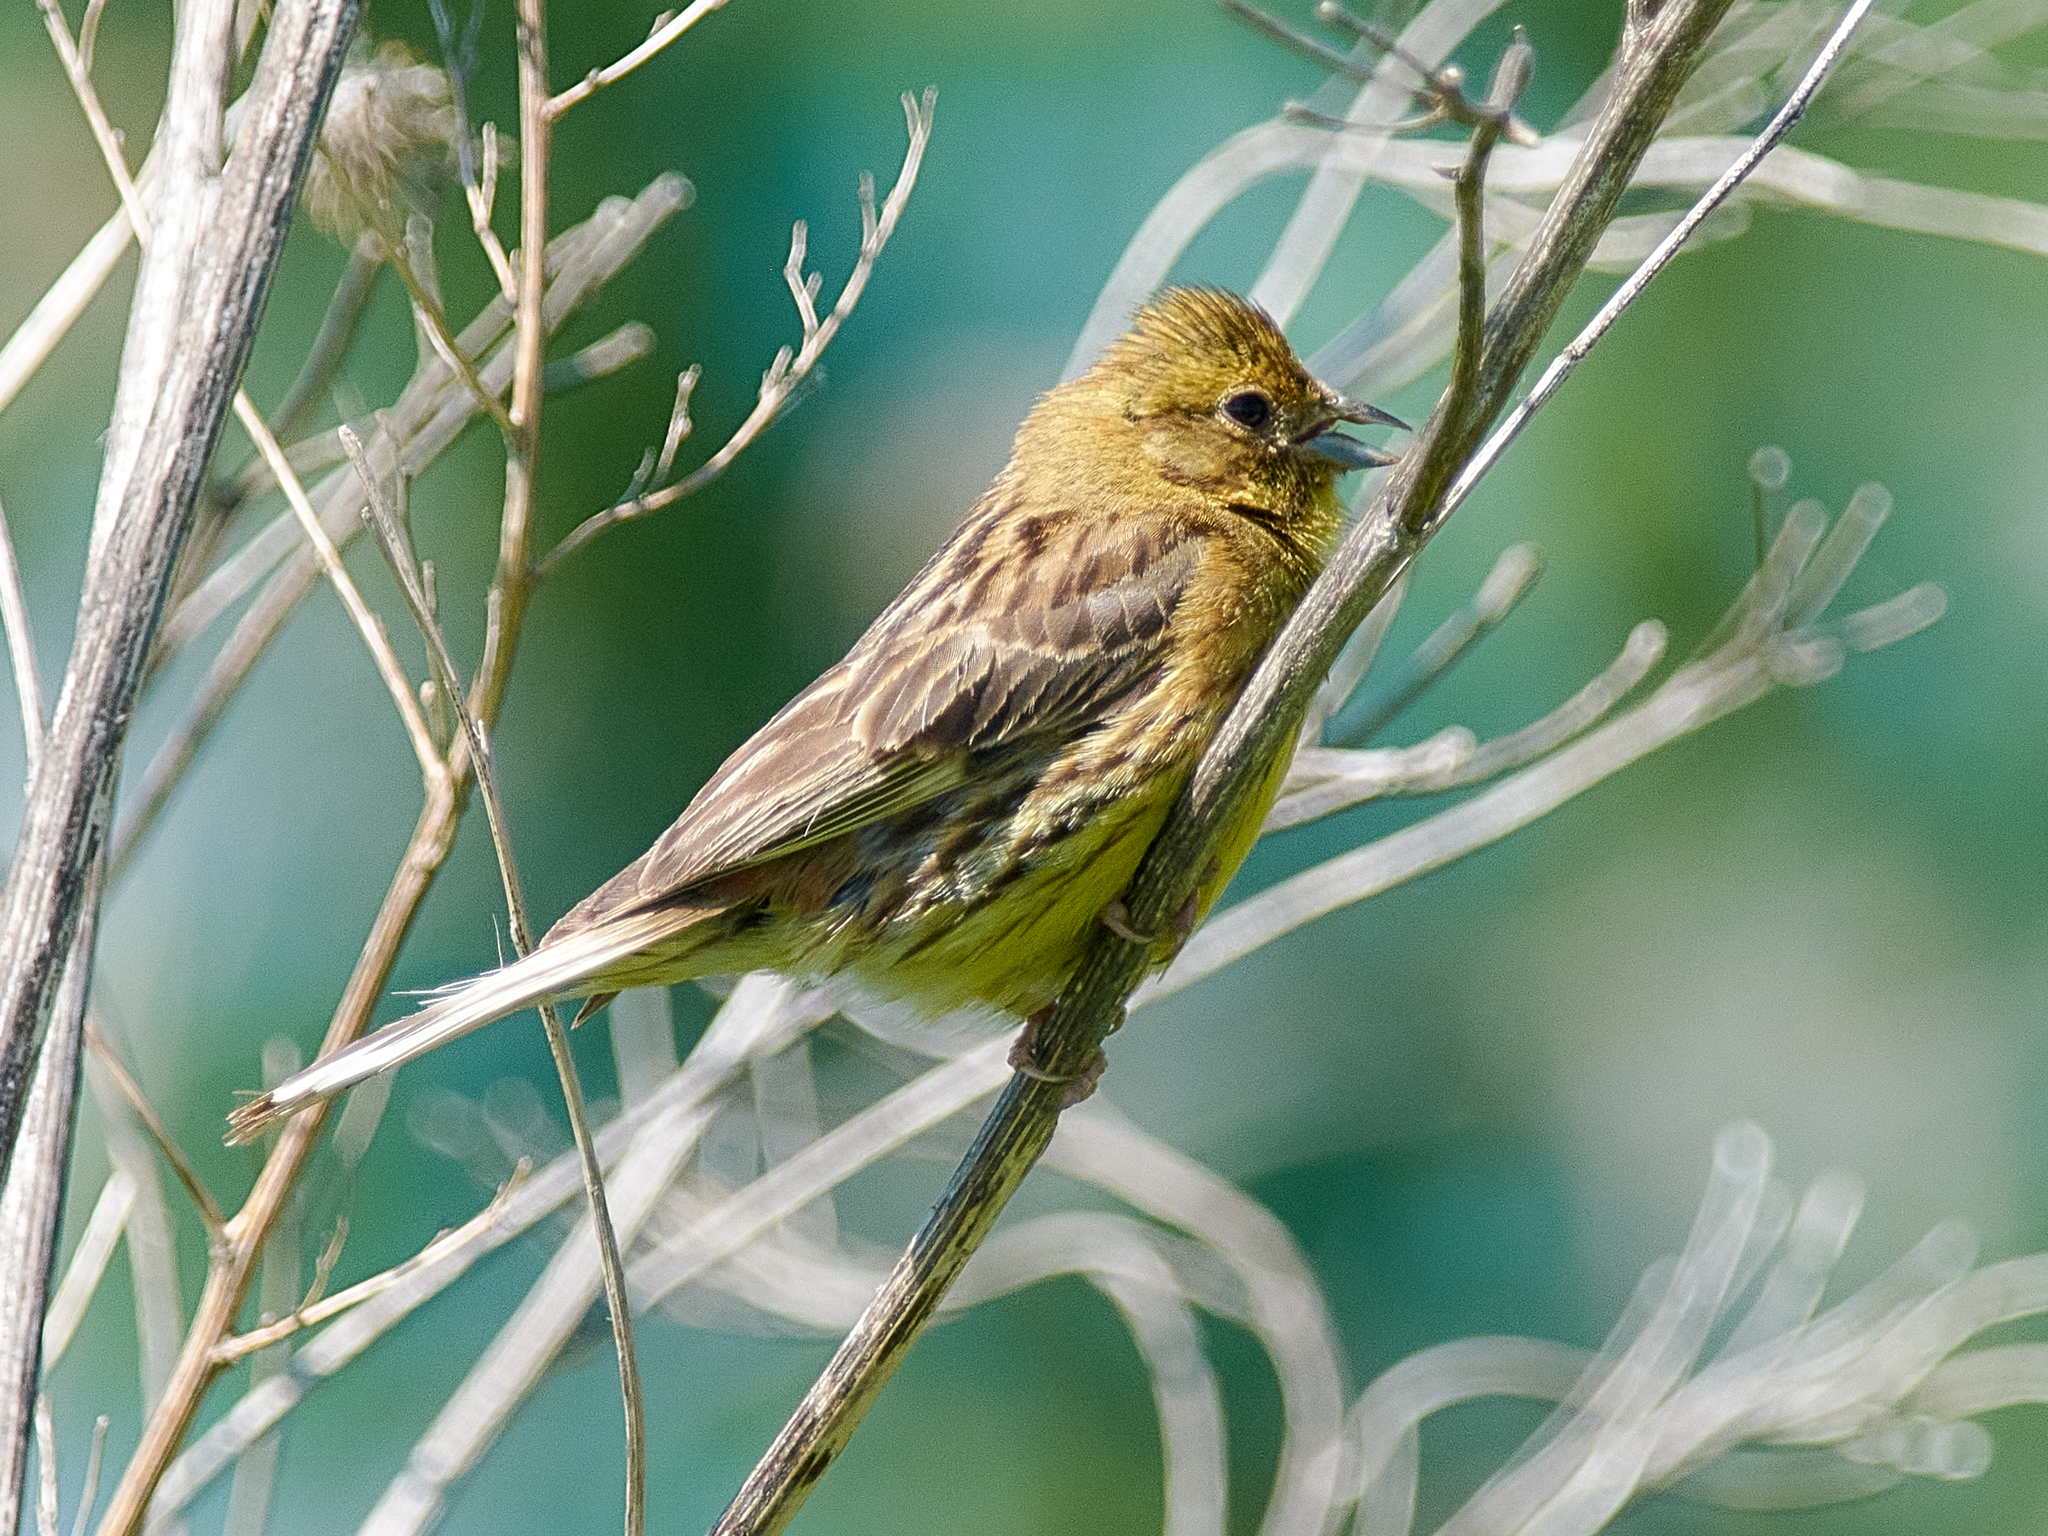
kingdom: Animalia
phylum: Chordata
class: Aves
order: Passeriformes
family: Emberizidae
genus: Emberiza
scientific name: Emberiza citrinella
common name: Yellowhammer
